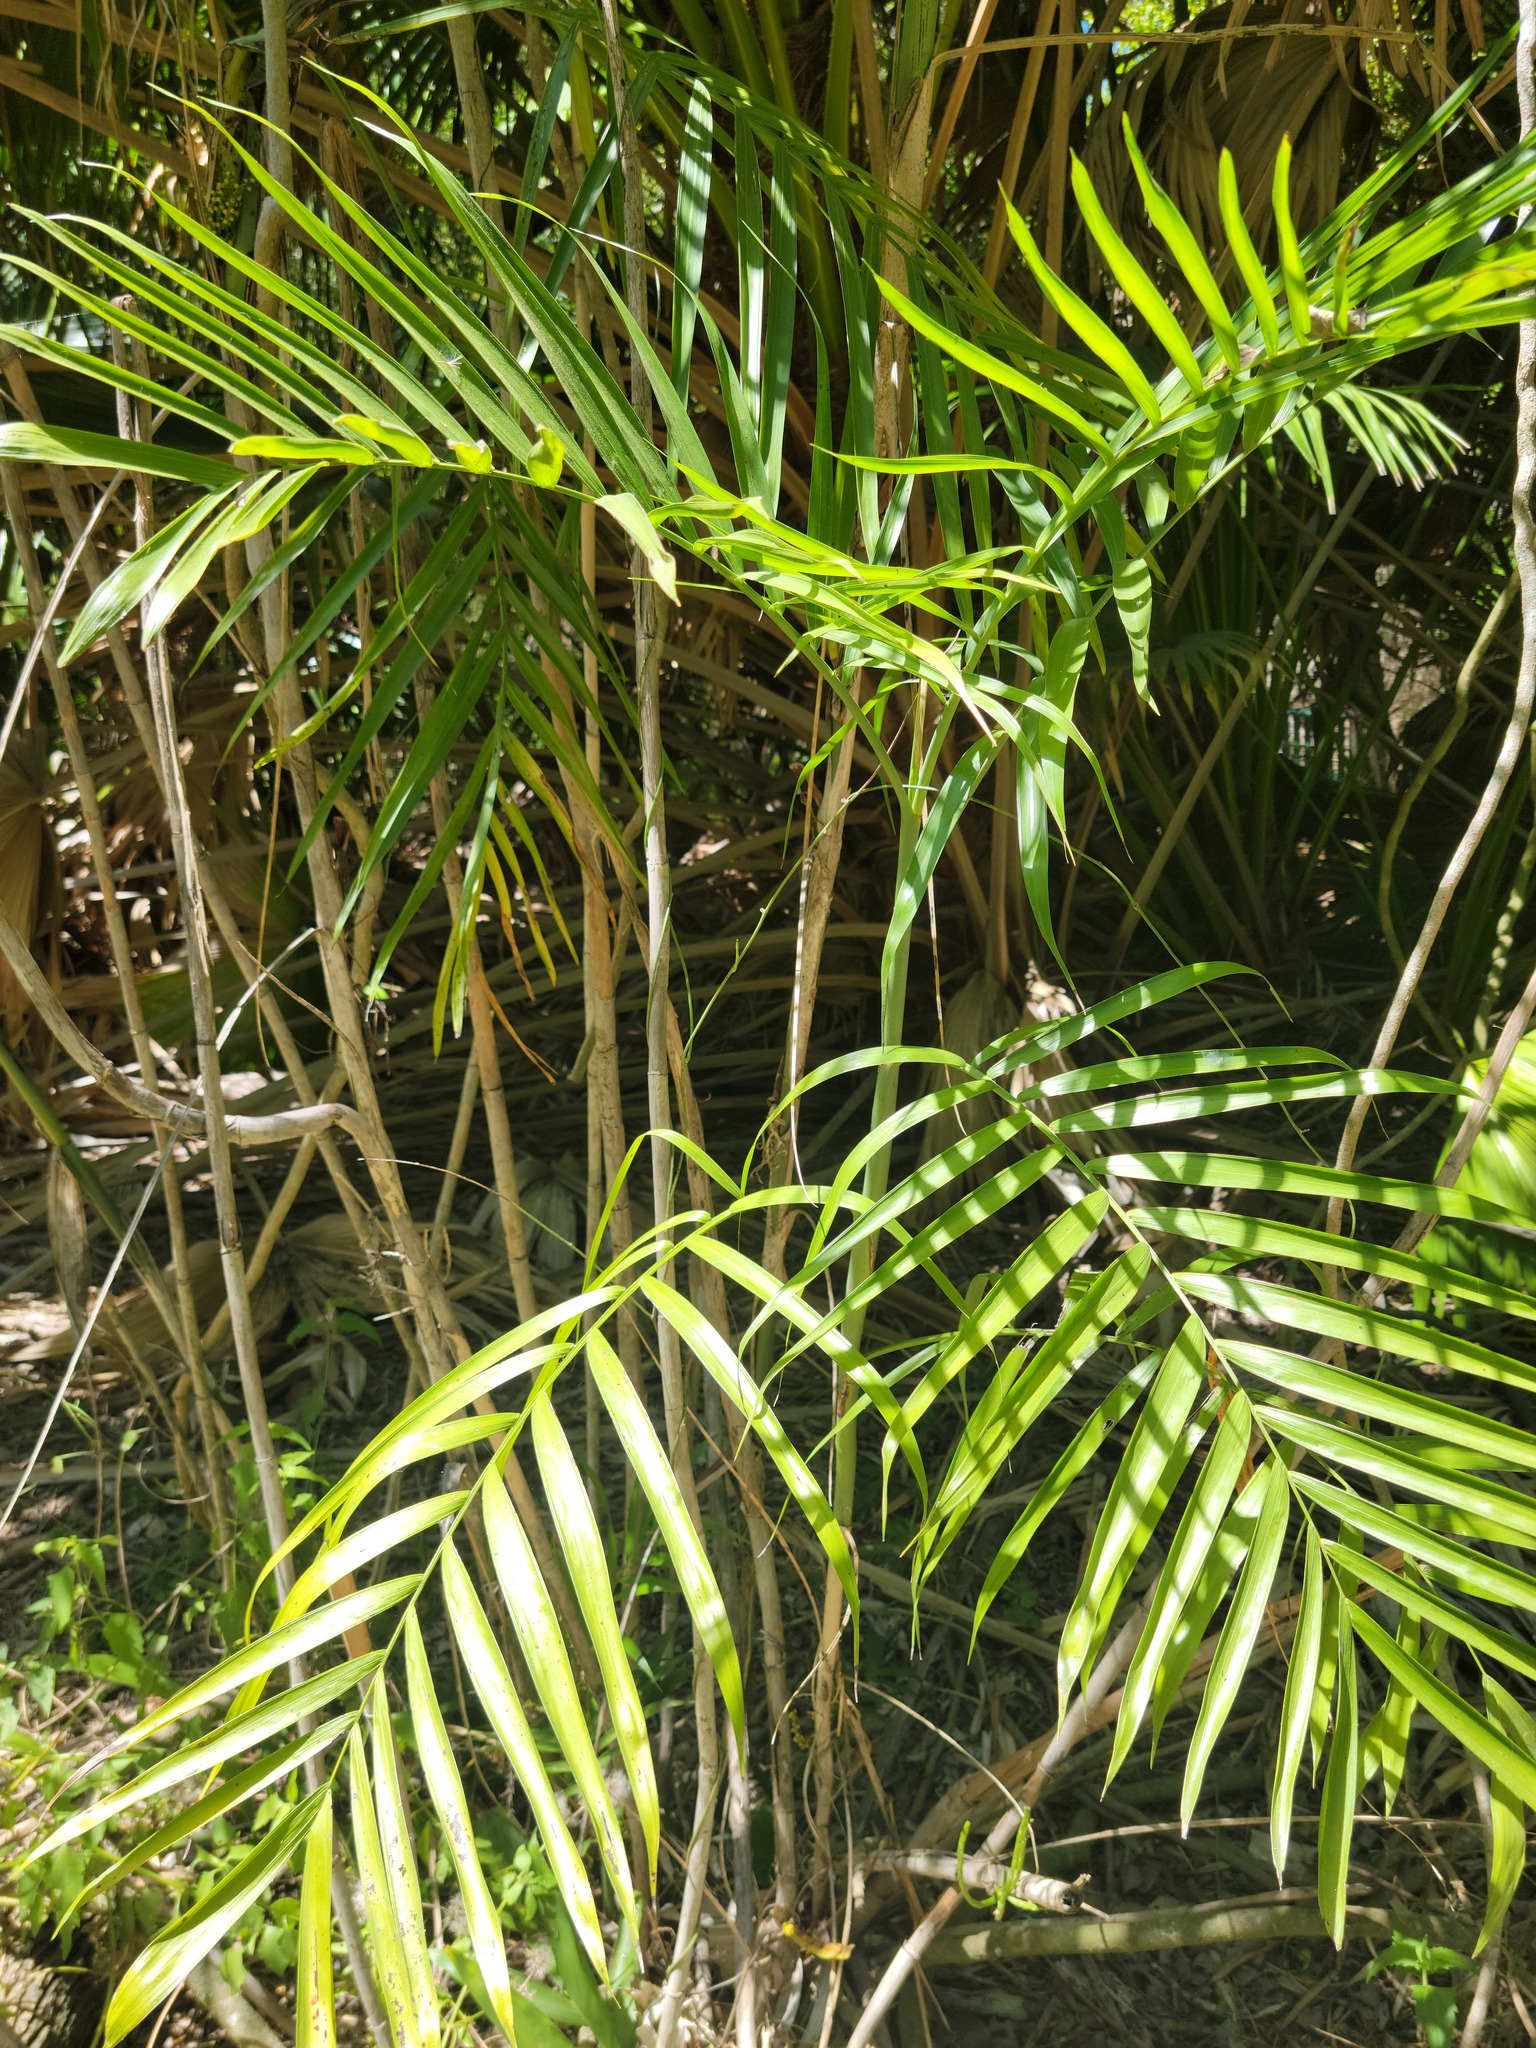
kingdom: Plantae
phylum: Tracheophyta
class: Liliopsida
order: Arecales
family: Arecaceae
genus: Chamaedorea
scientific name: Chamaedorea seifrizii
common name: Seifriz's chamaedorea
